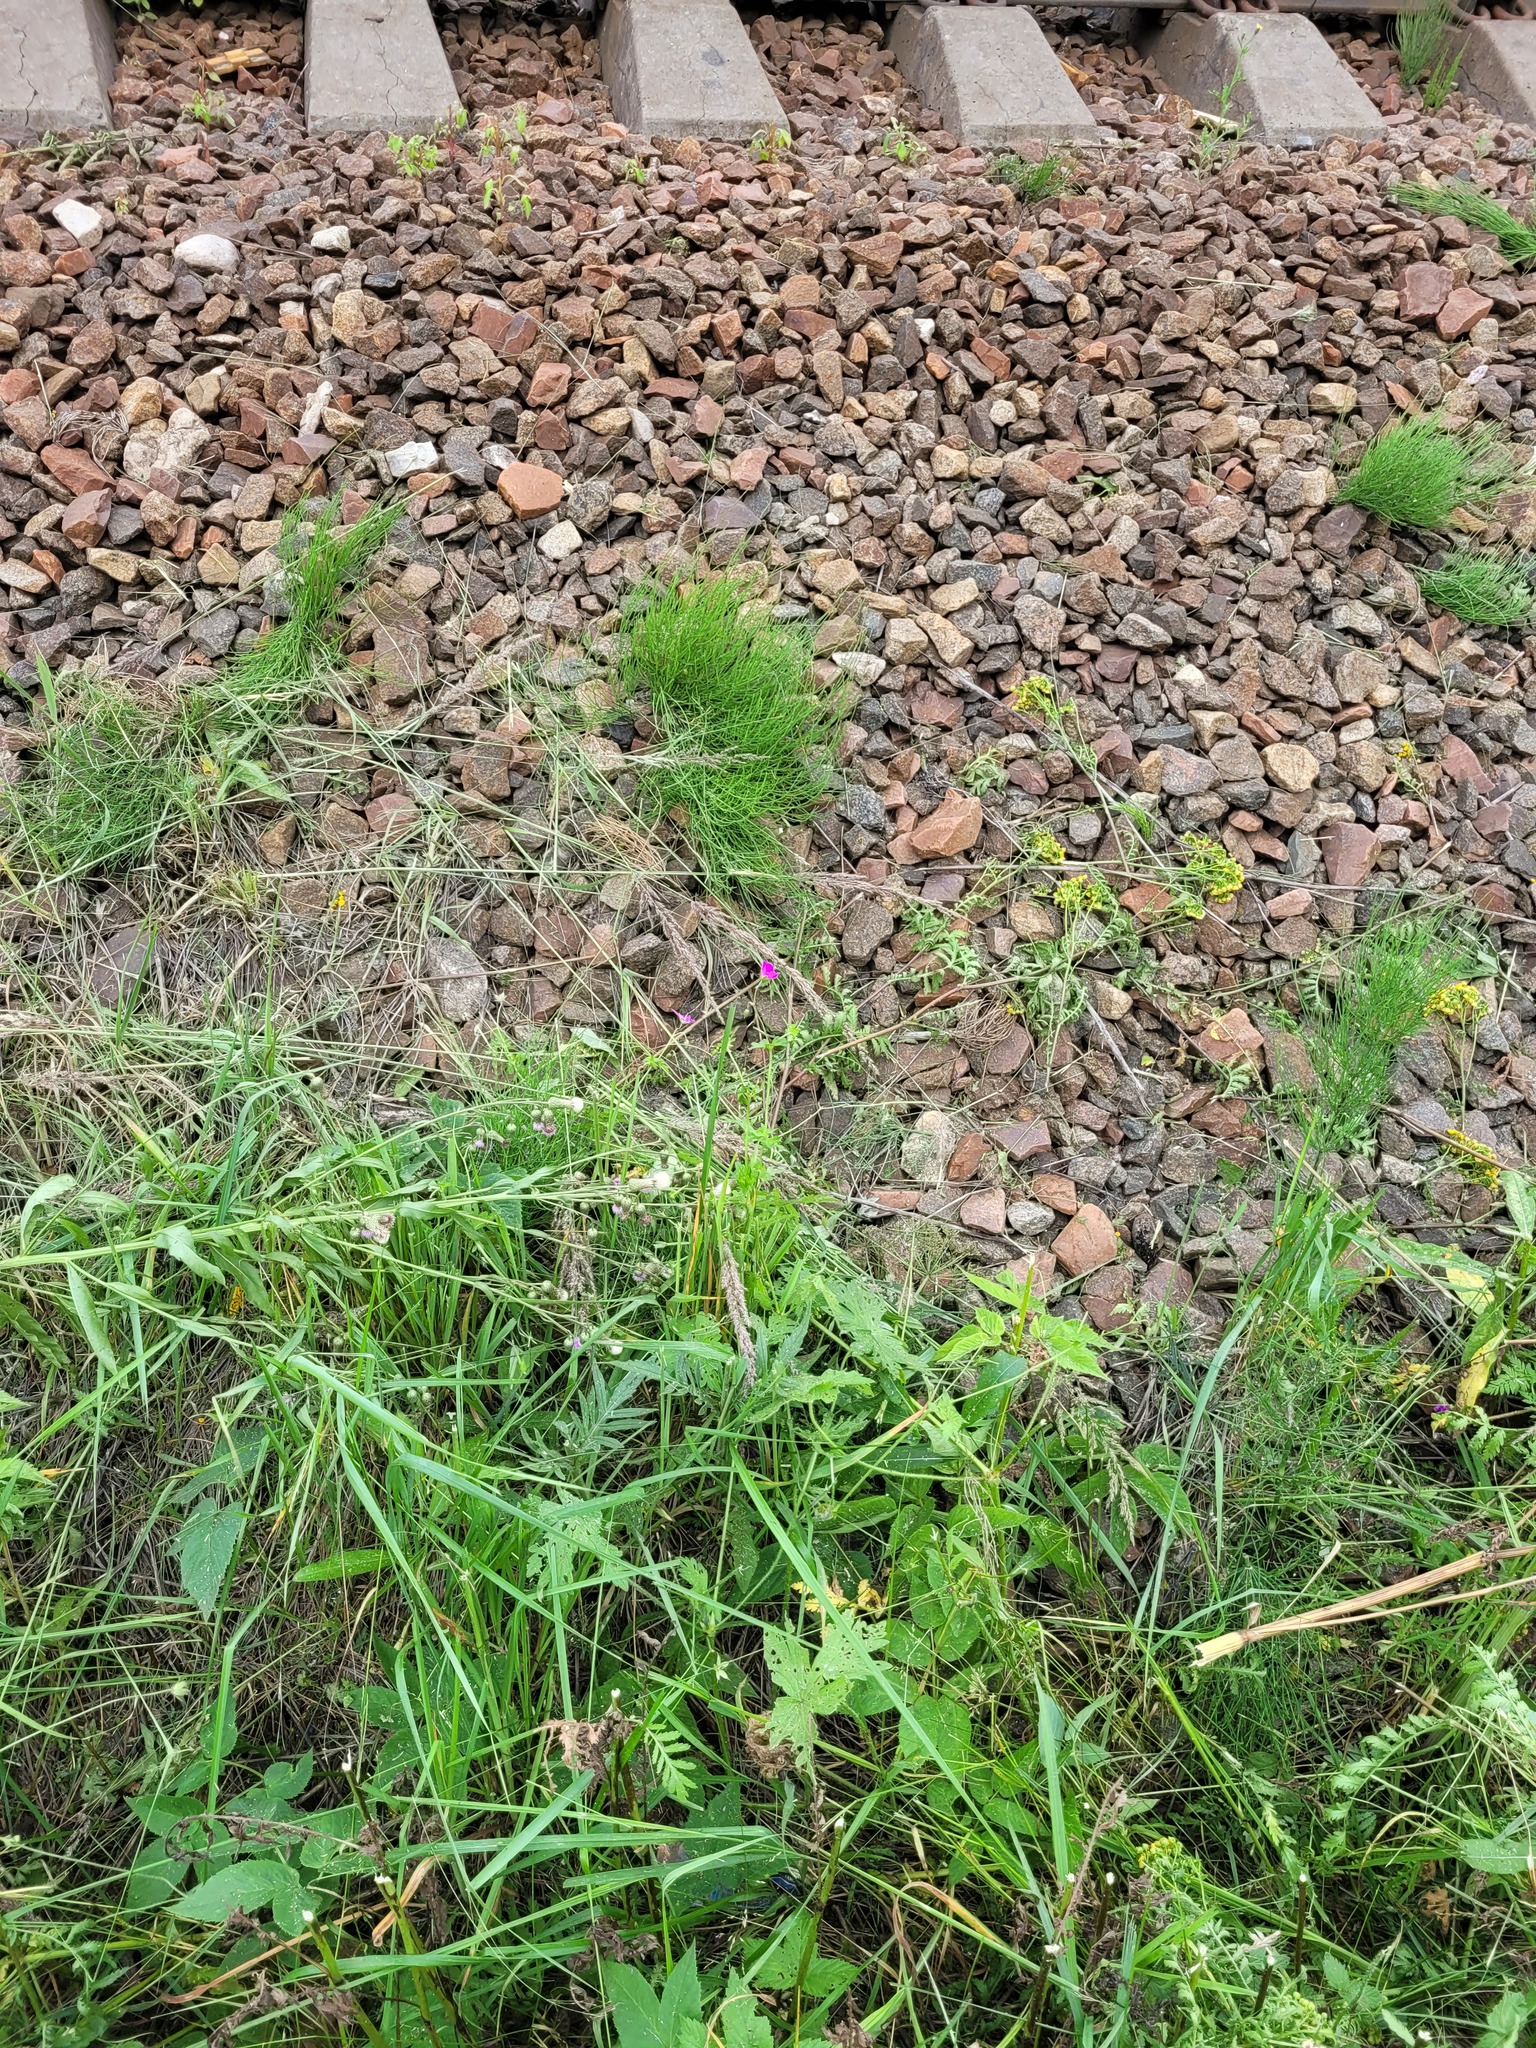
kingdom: Plantae
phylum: Tracheophyta
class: Magnoliopsida
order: Geraniales
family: Geraniaceae
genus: Geranium
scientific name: Geranium palustre
